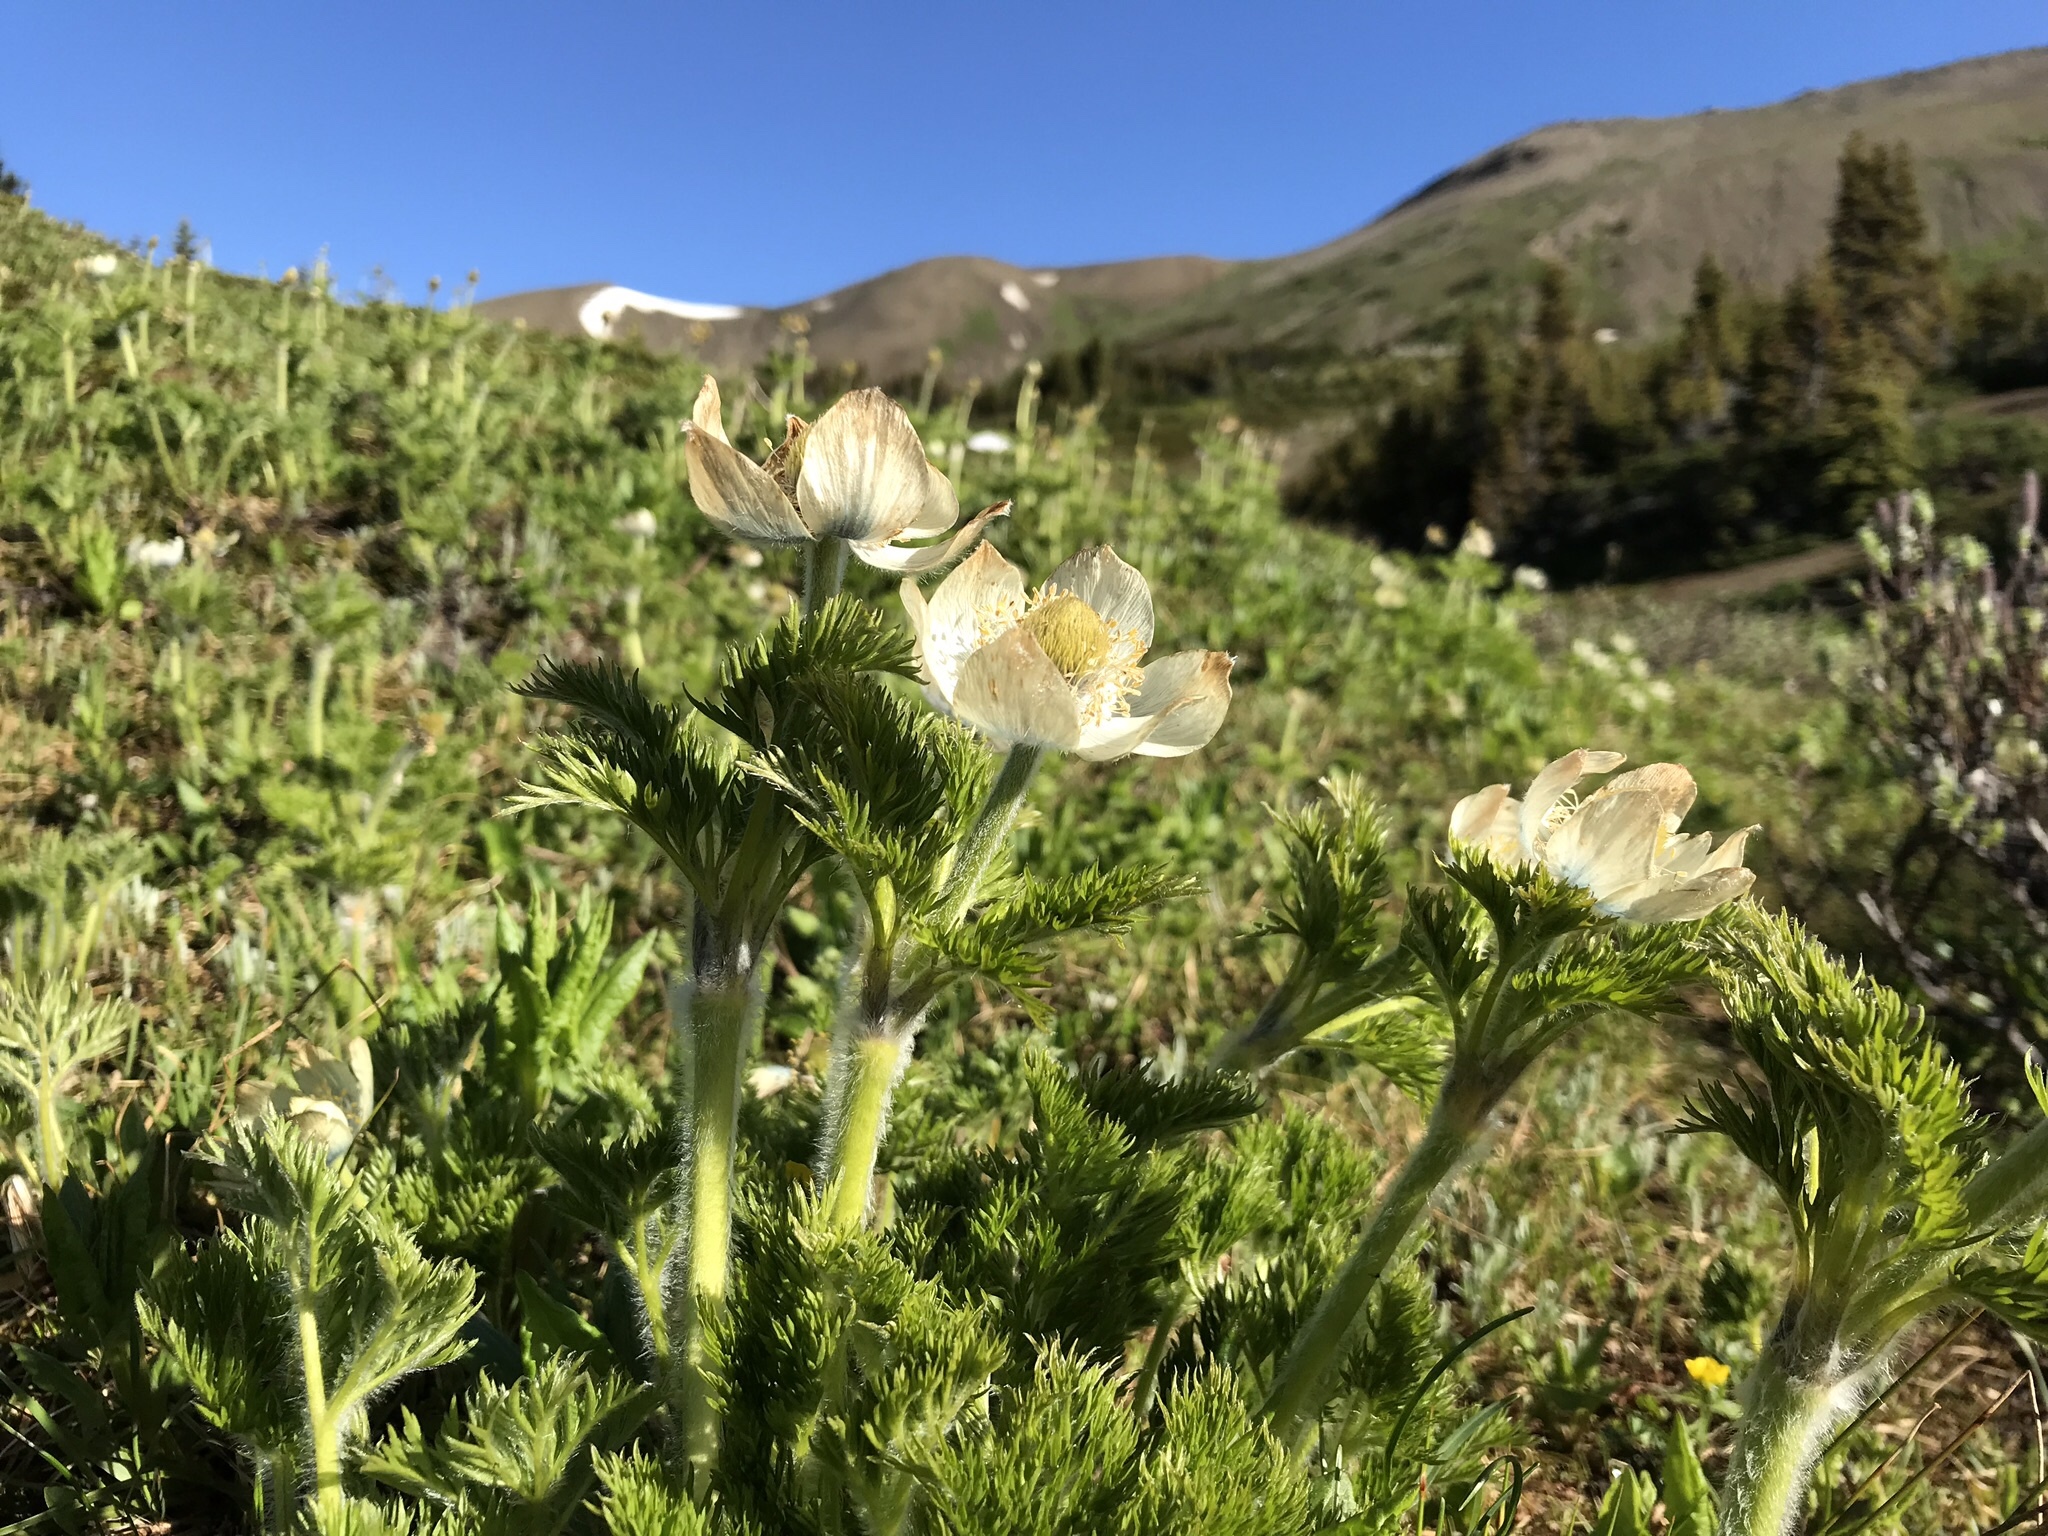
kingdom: Plantae
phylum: Tracheophyta
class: Magnoliopsida
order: Ranunculales
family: Ranunculaceae
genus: Pulsatilla
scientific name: Pulsatilla occidentalis
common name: Mountain pasqueflower
